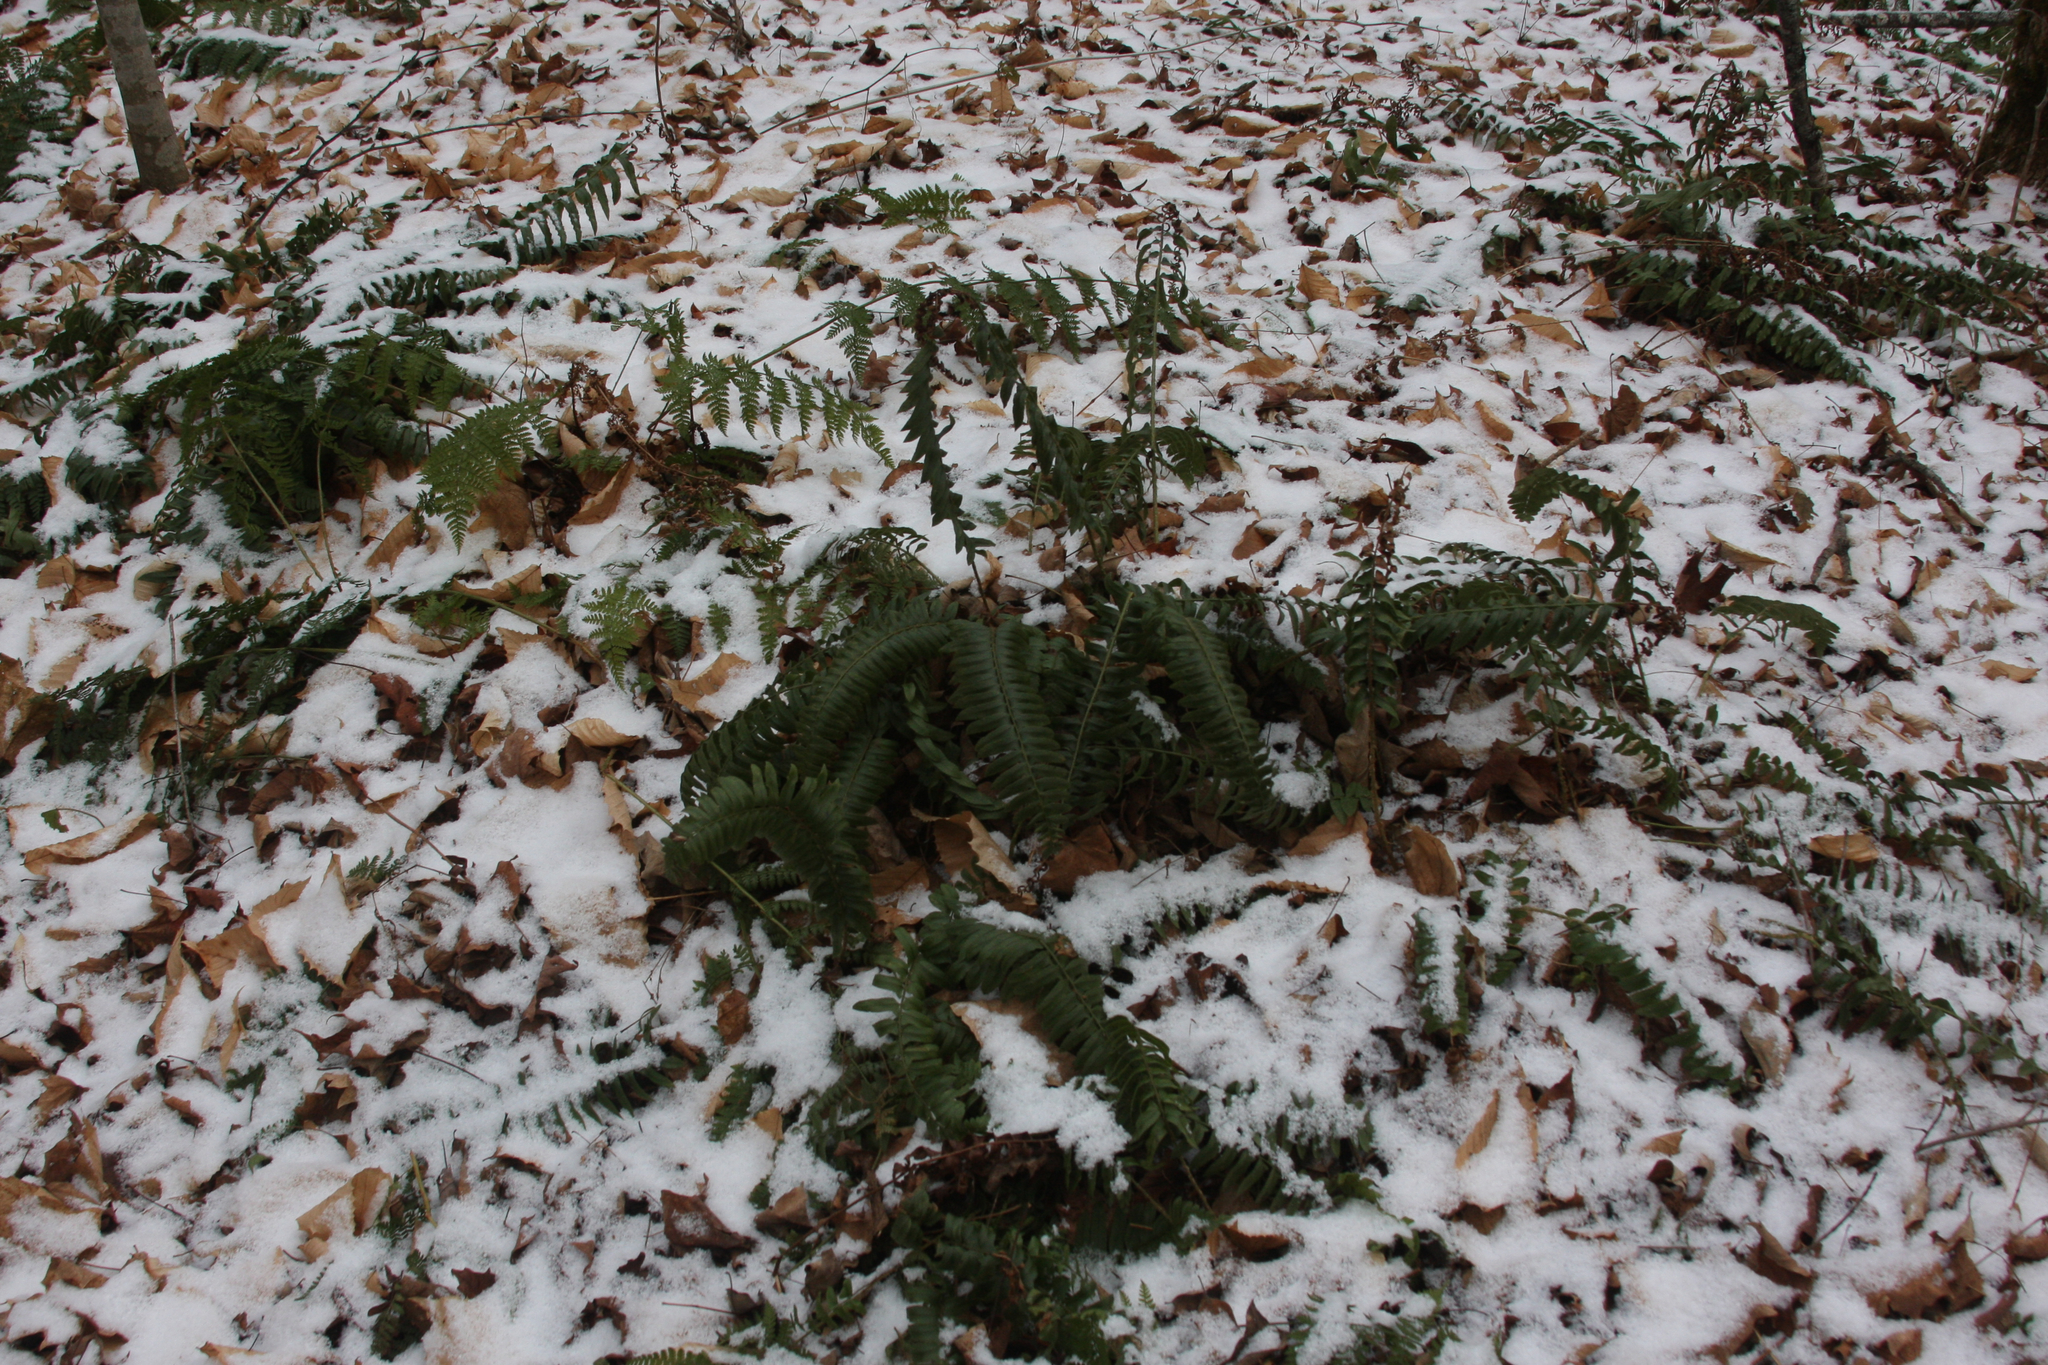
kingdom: Plantae
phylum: Tracheophyta
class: Polypodiopsida
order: Polypodiales
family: Dryopteridaceae
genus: Polystichum
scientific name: Polystichum acrostichoides
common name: Christmas fern
